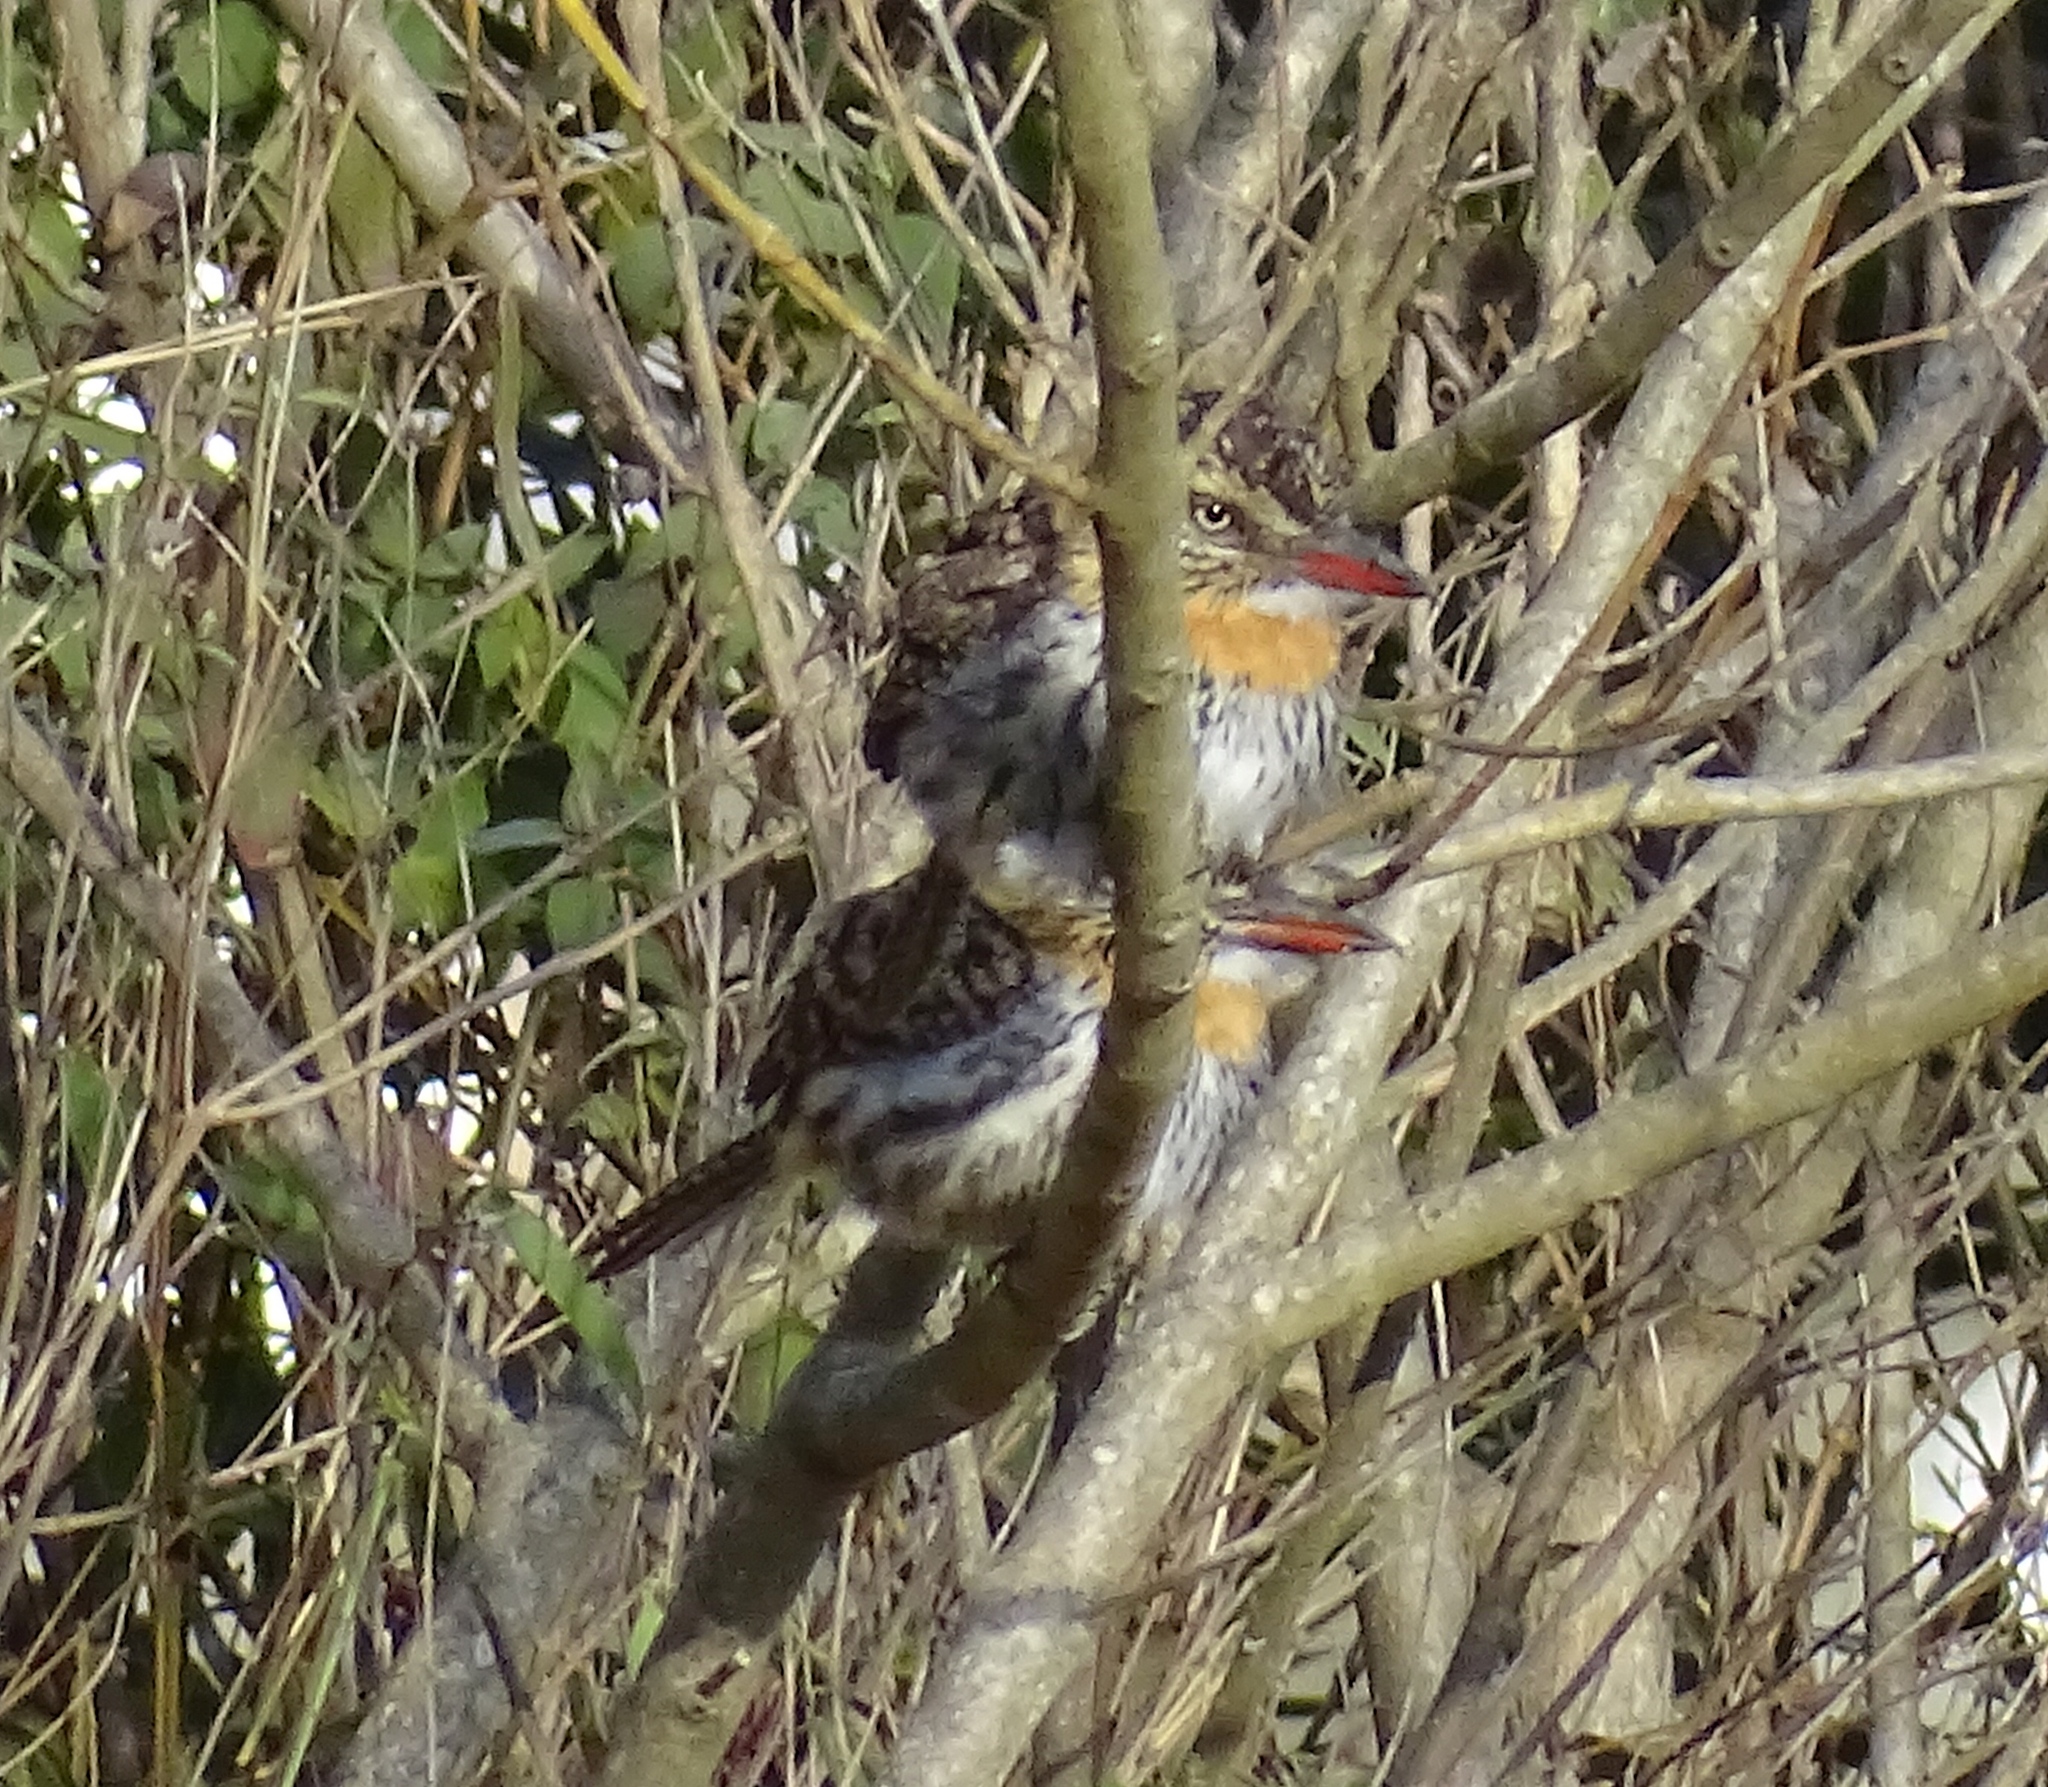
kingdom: Animalia
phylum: Chordata
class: Aves
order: Piciformes
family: Bucconidae
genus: Nystalus
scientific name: Nystalus maculatus
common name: Caatinga puffbird
